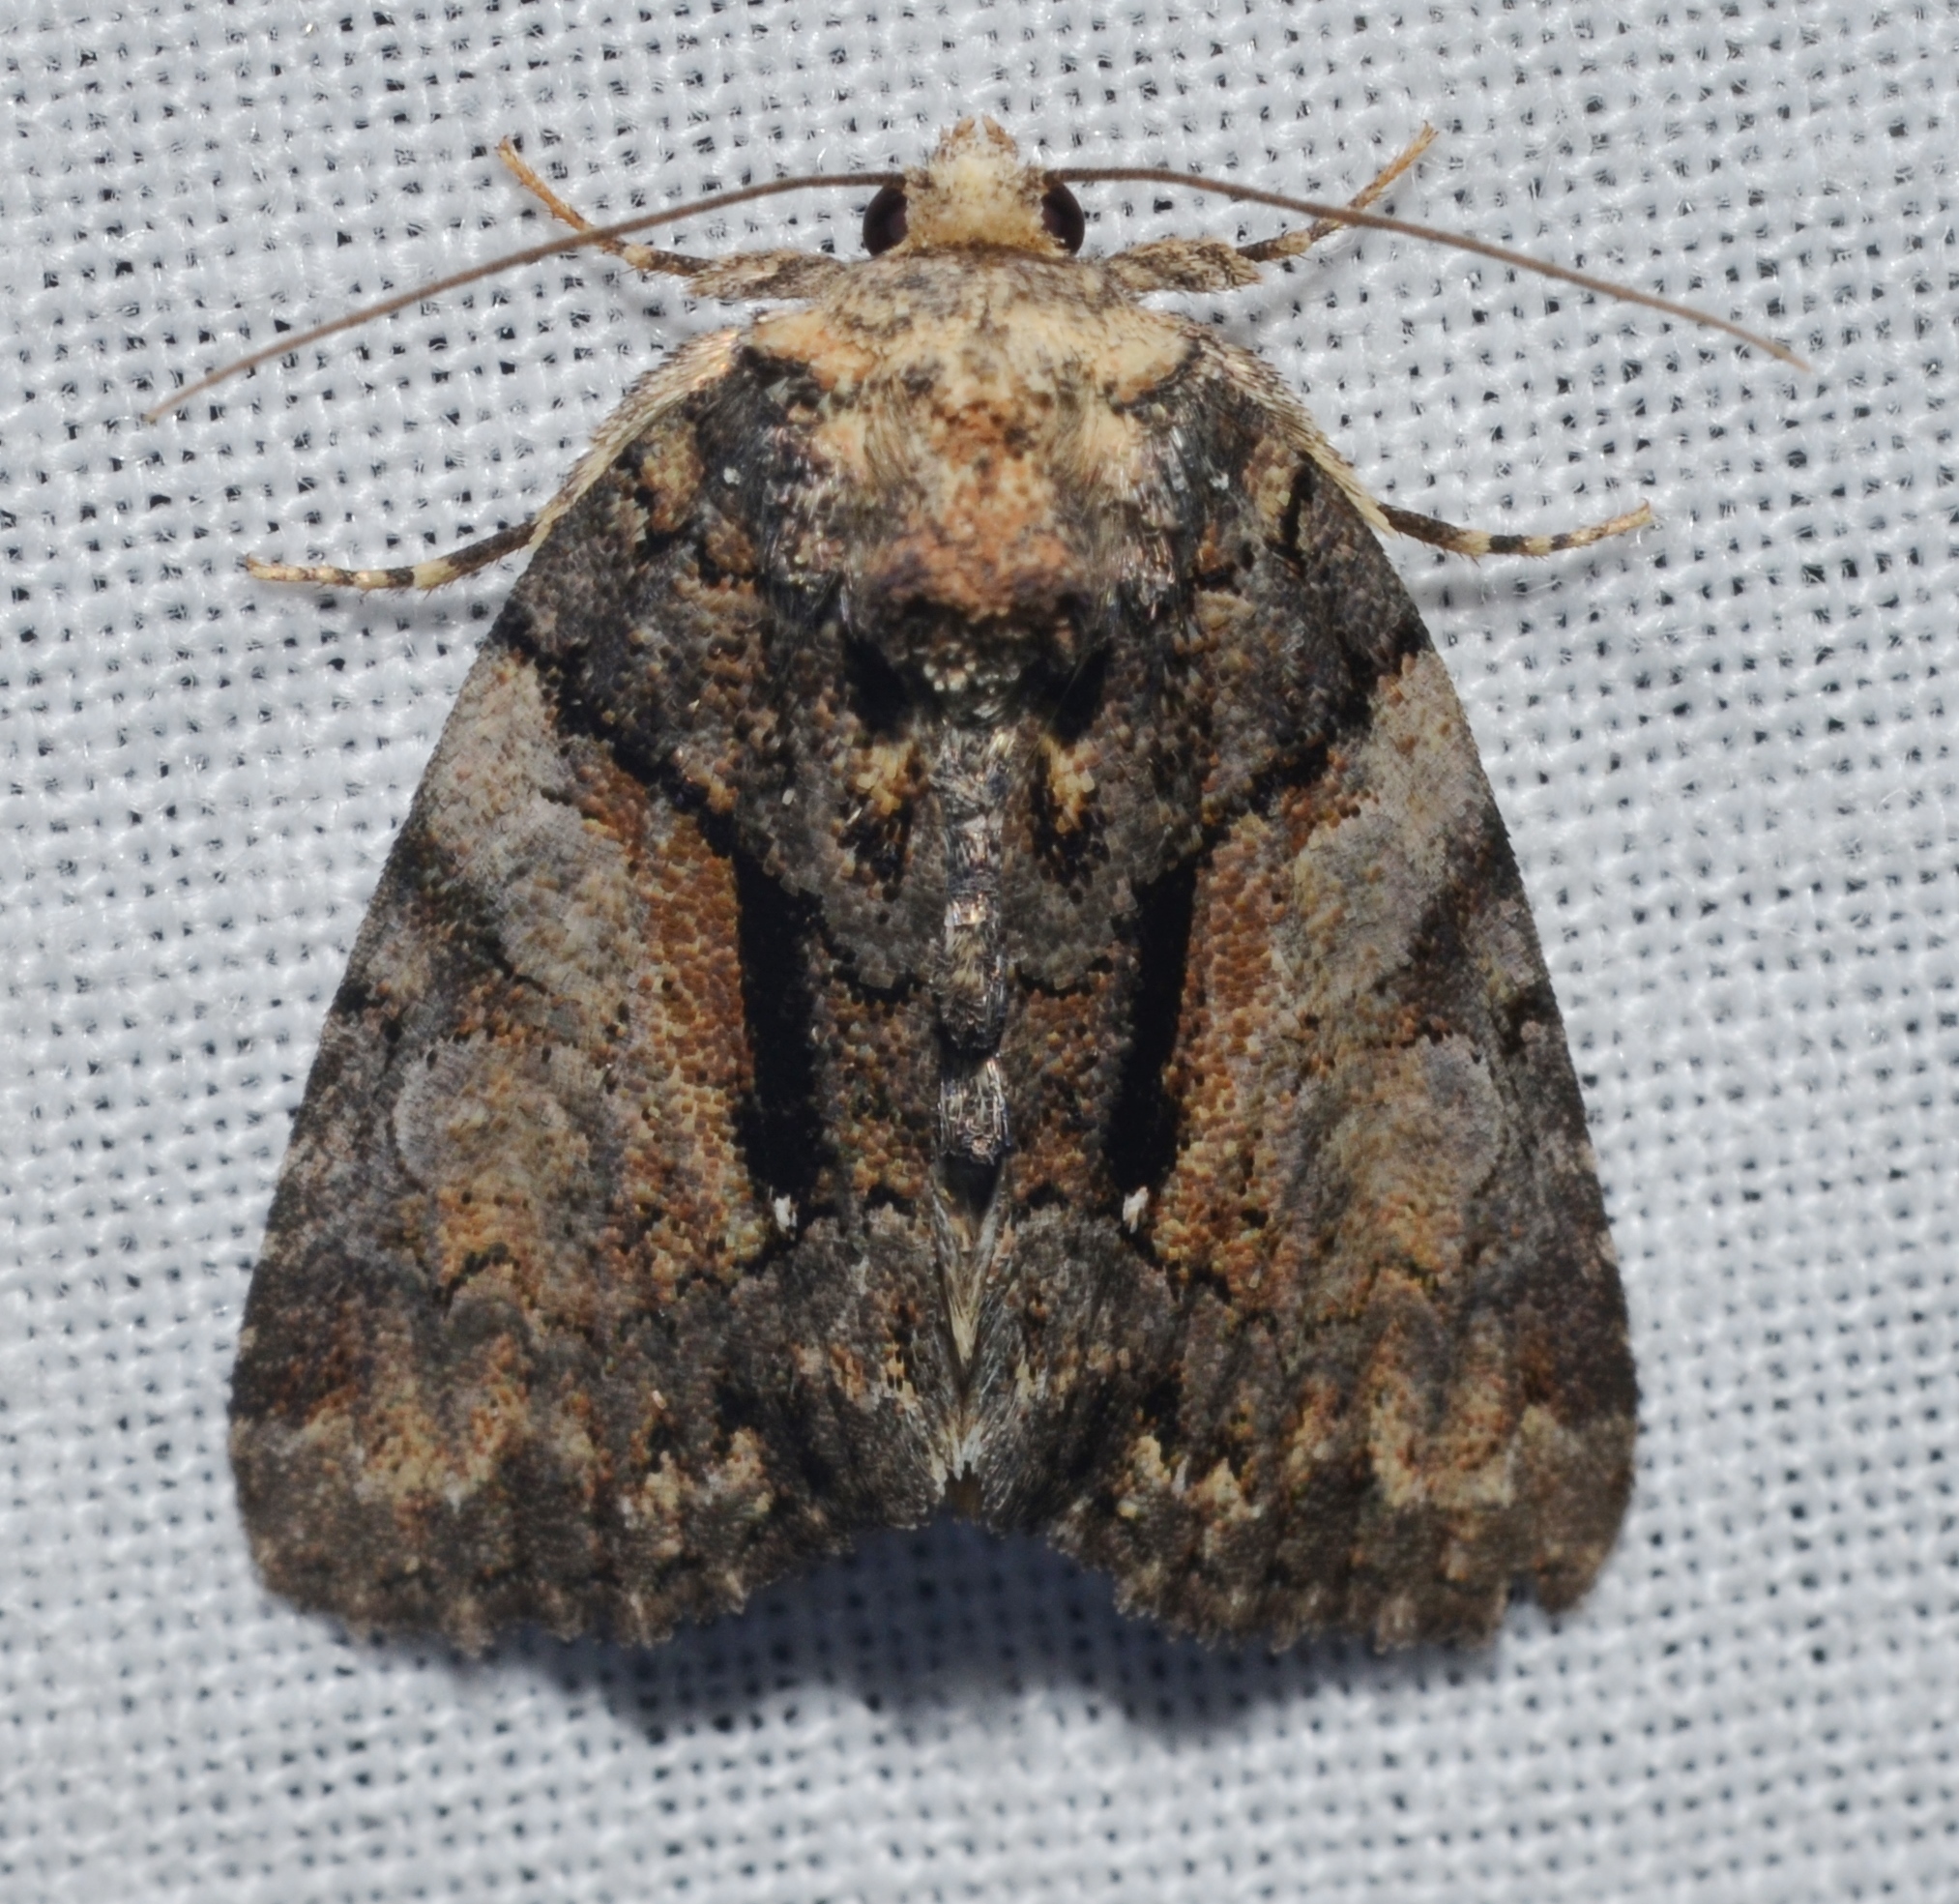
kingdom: Animalia
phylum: Arthropoda
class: Insecta
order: Lepidoptera
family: Noctuidae
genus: Chytonix
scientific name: Chytonix palliatricula
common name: Cloaked marvel
